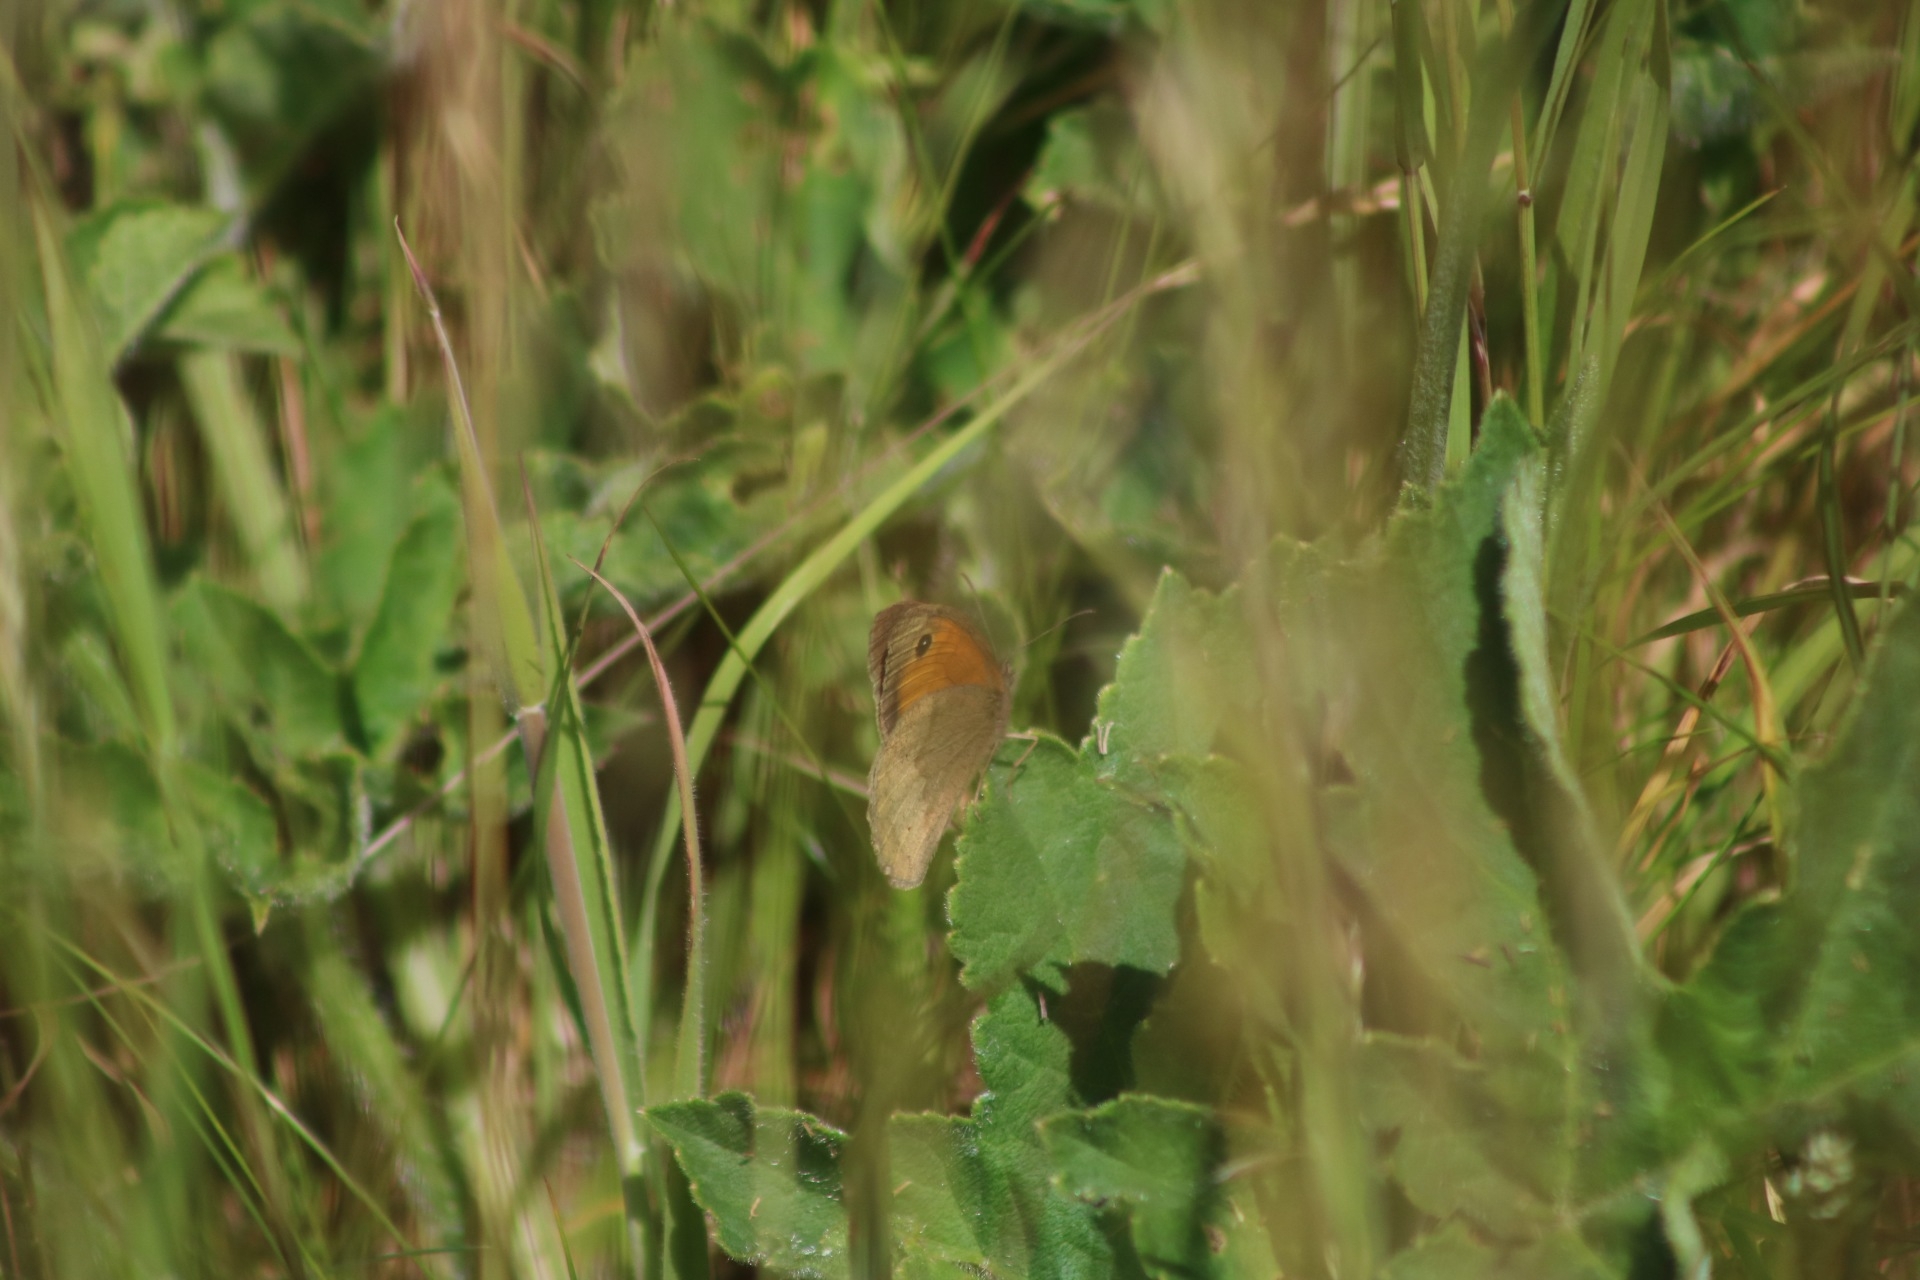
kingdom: Animalia
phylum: Arthropoda
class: Insecta
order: Lepidoptera
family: Nymphalidae
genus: Maniola
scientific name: Maniola jurtina
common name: Meadow brown
